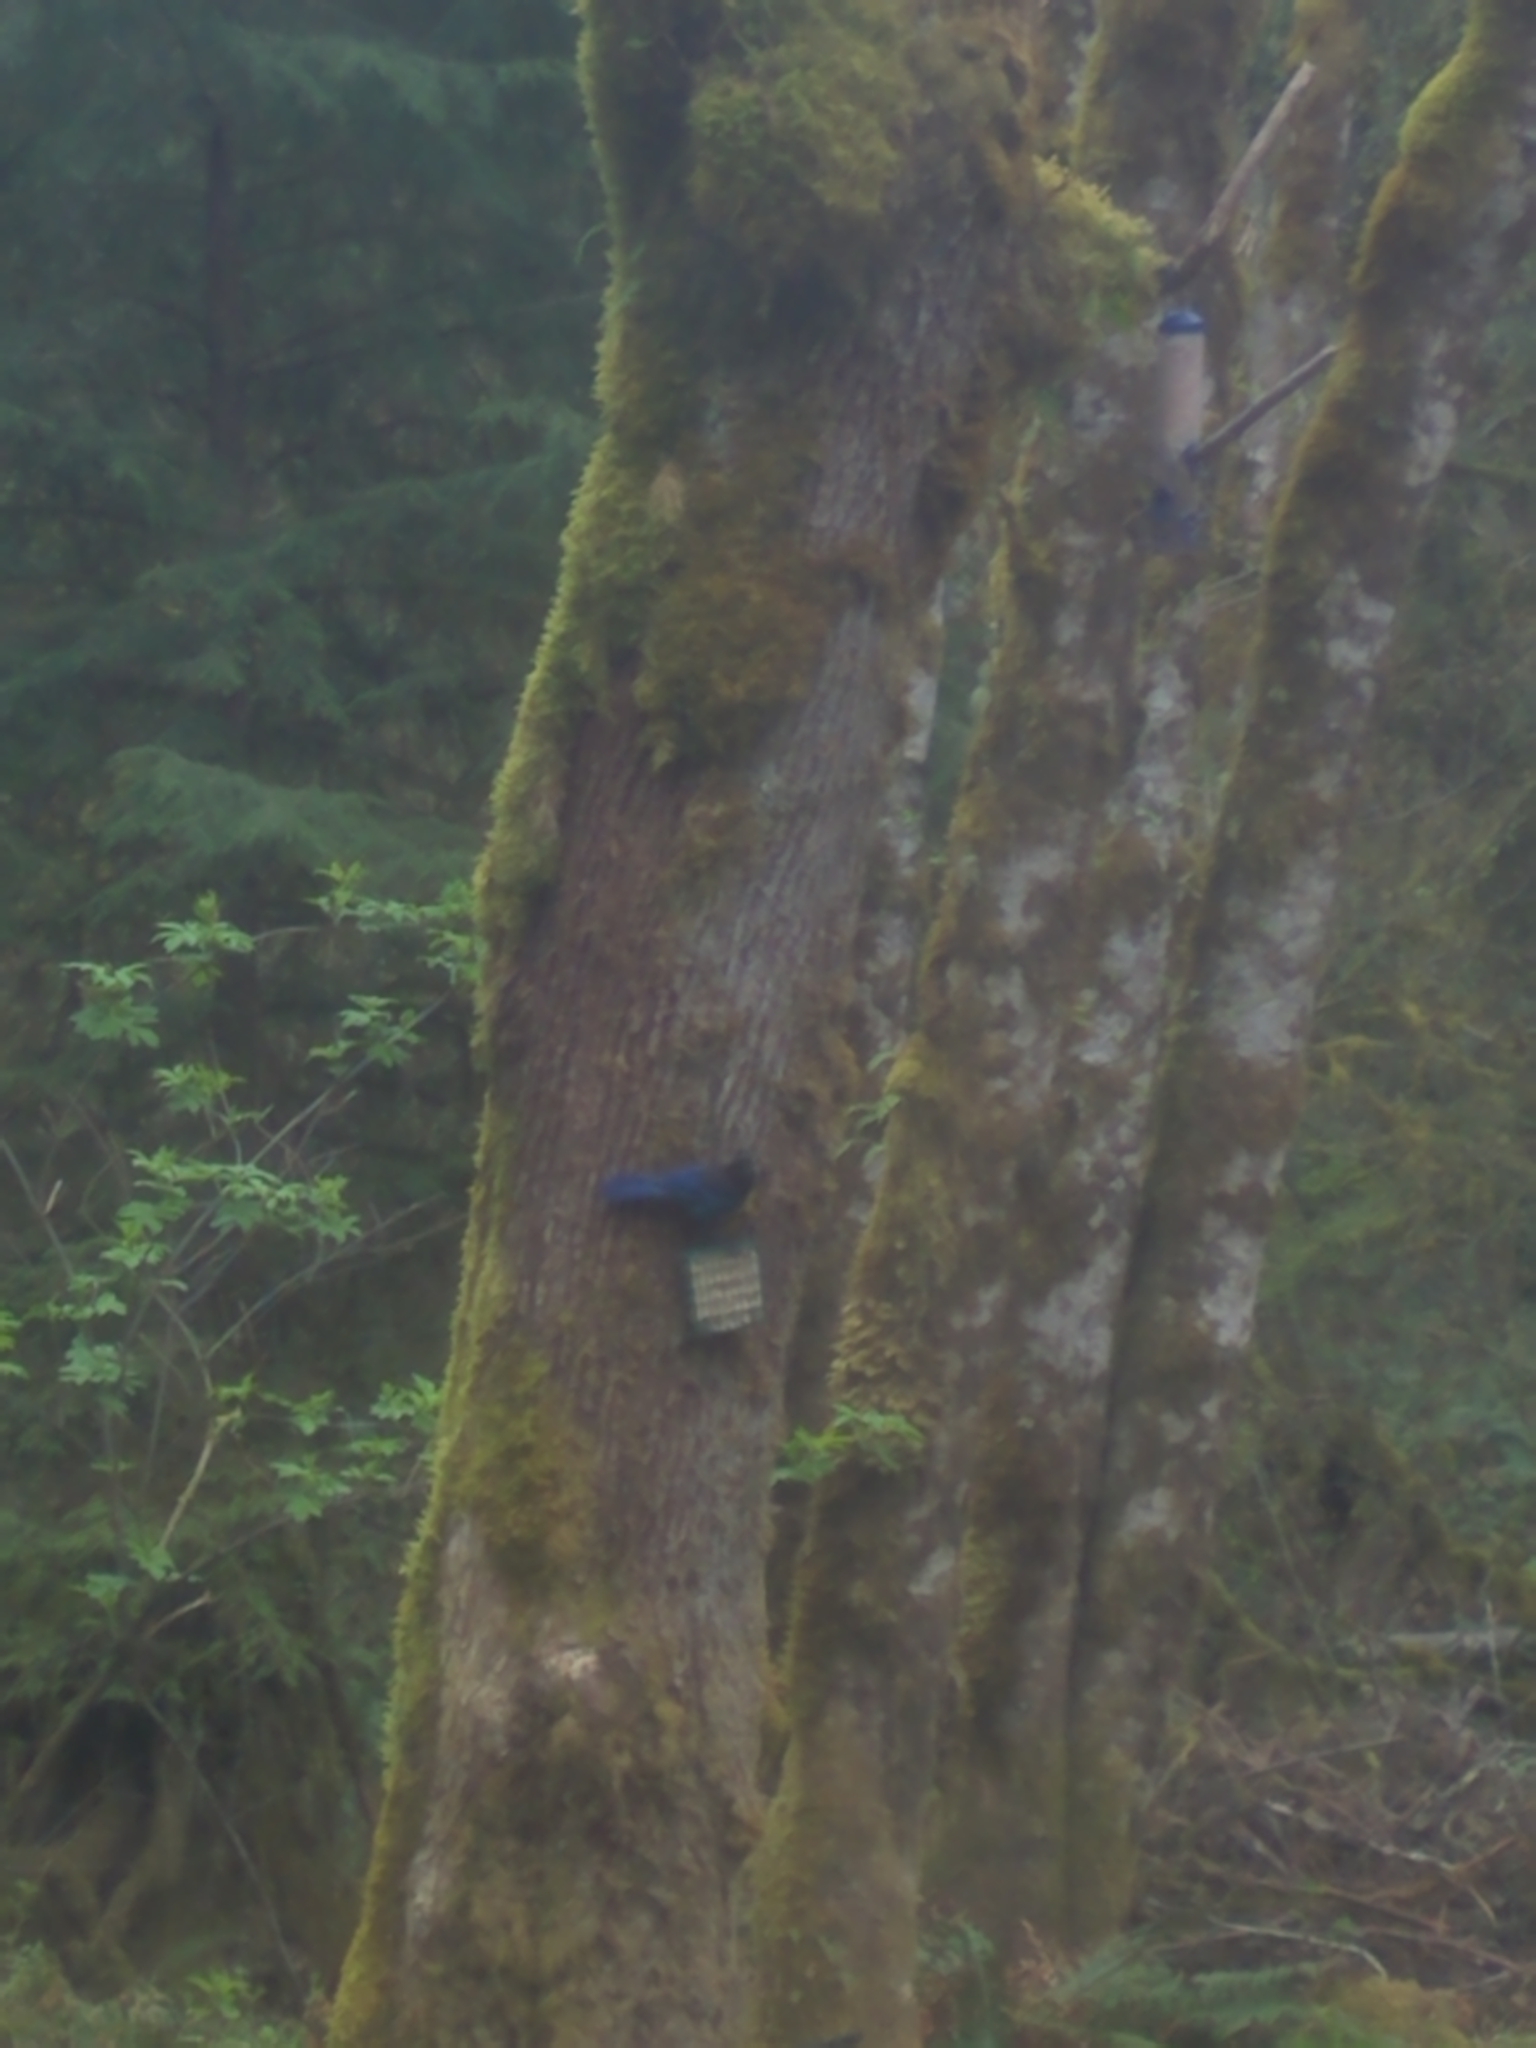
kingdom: Animalia
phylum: Chordata
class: Aves
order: Passeriformes
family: Corvidae
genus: Cyanocitta
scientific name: Cyanocitta stelleri
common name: Steller's jay
